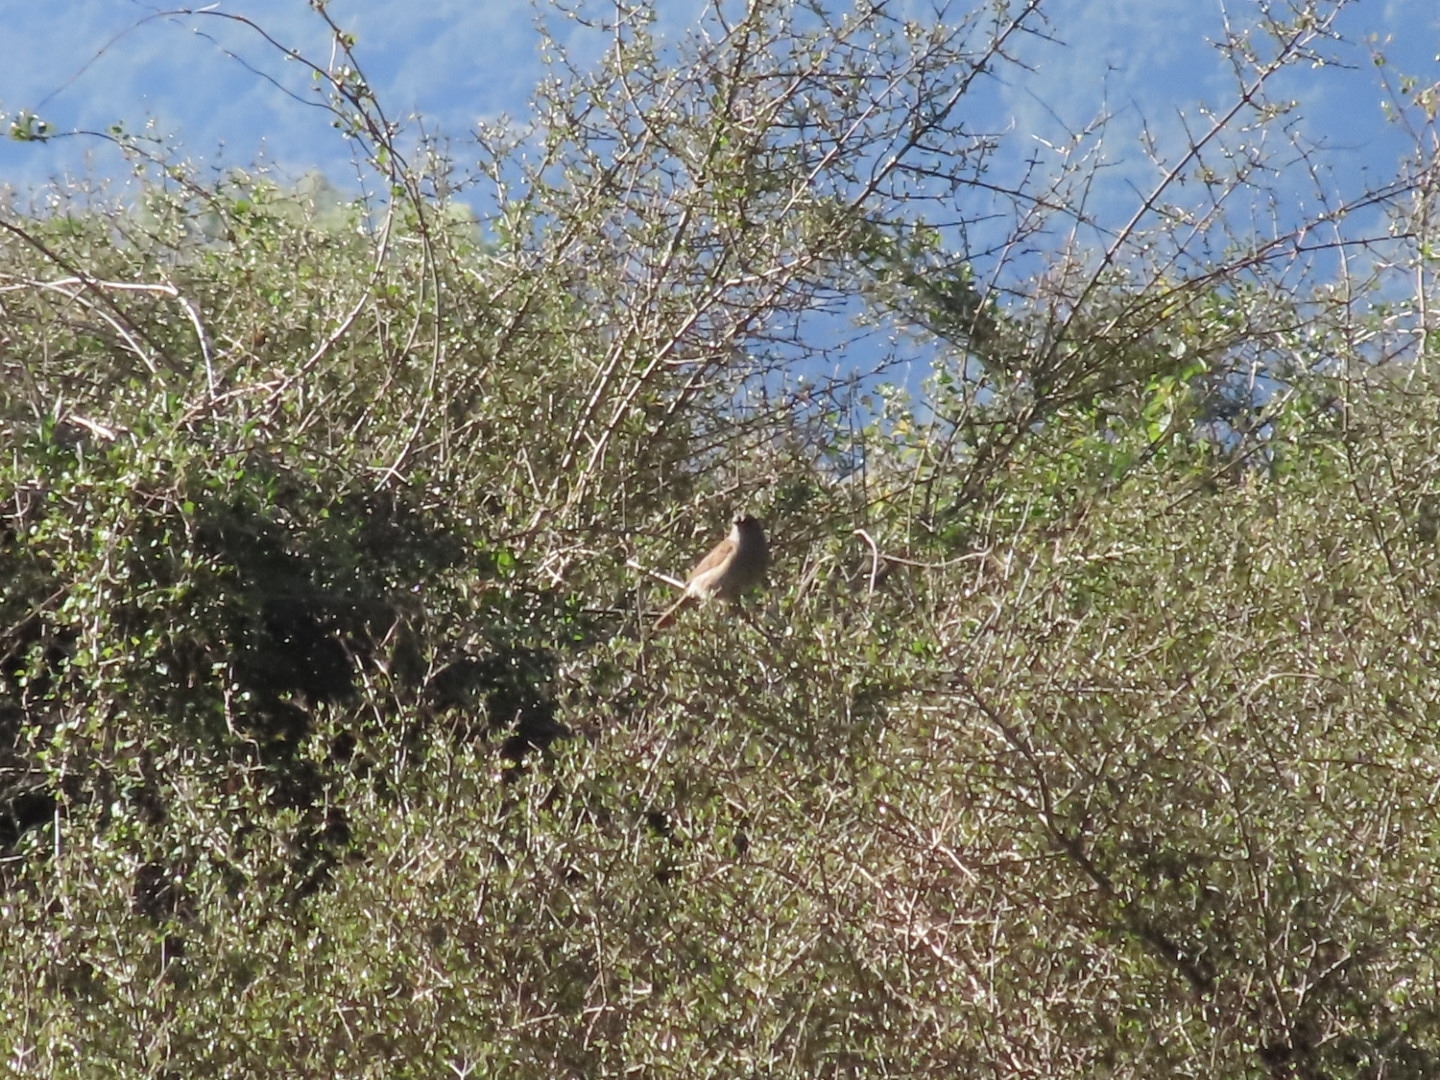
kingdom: Animalia
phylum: Chordata
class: Aves
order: Passeriformes
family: Prunellidae
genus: Prunella
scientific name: Prunella modularis
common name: Dunnock
